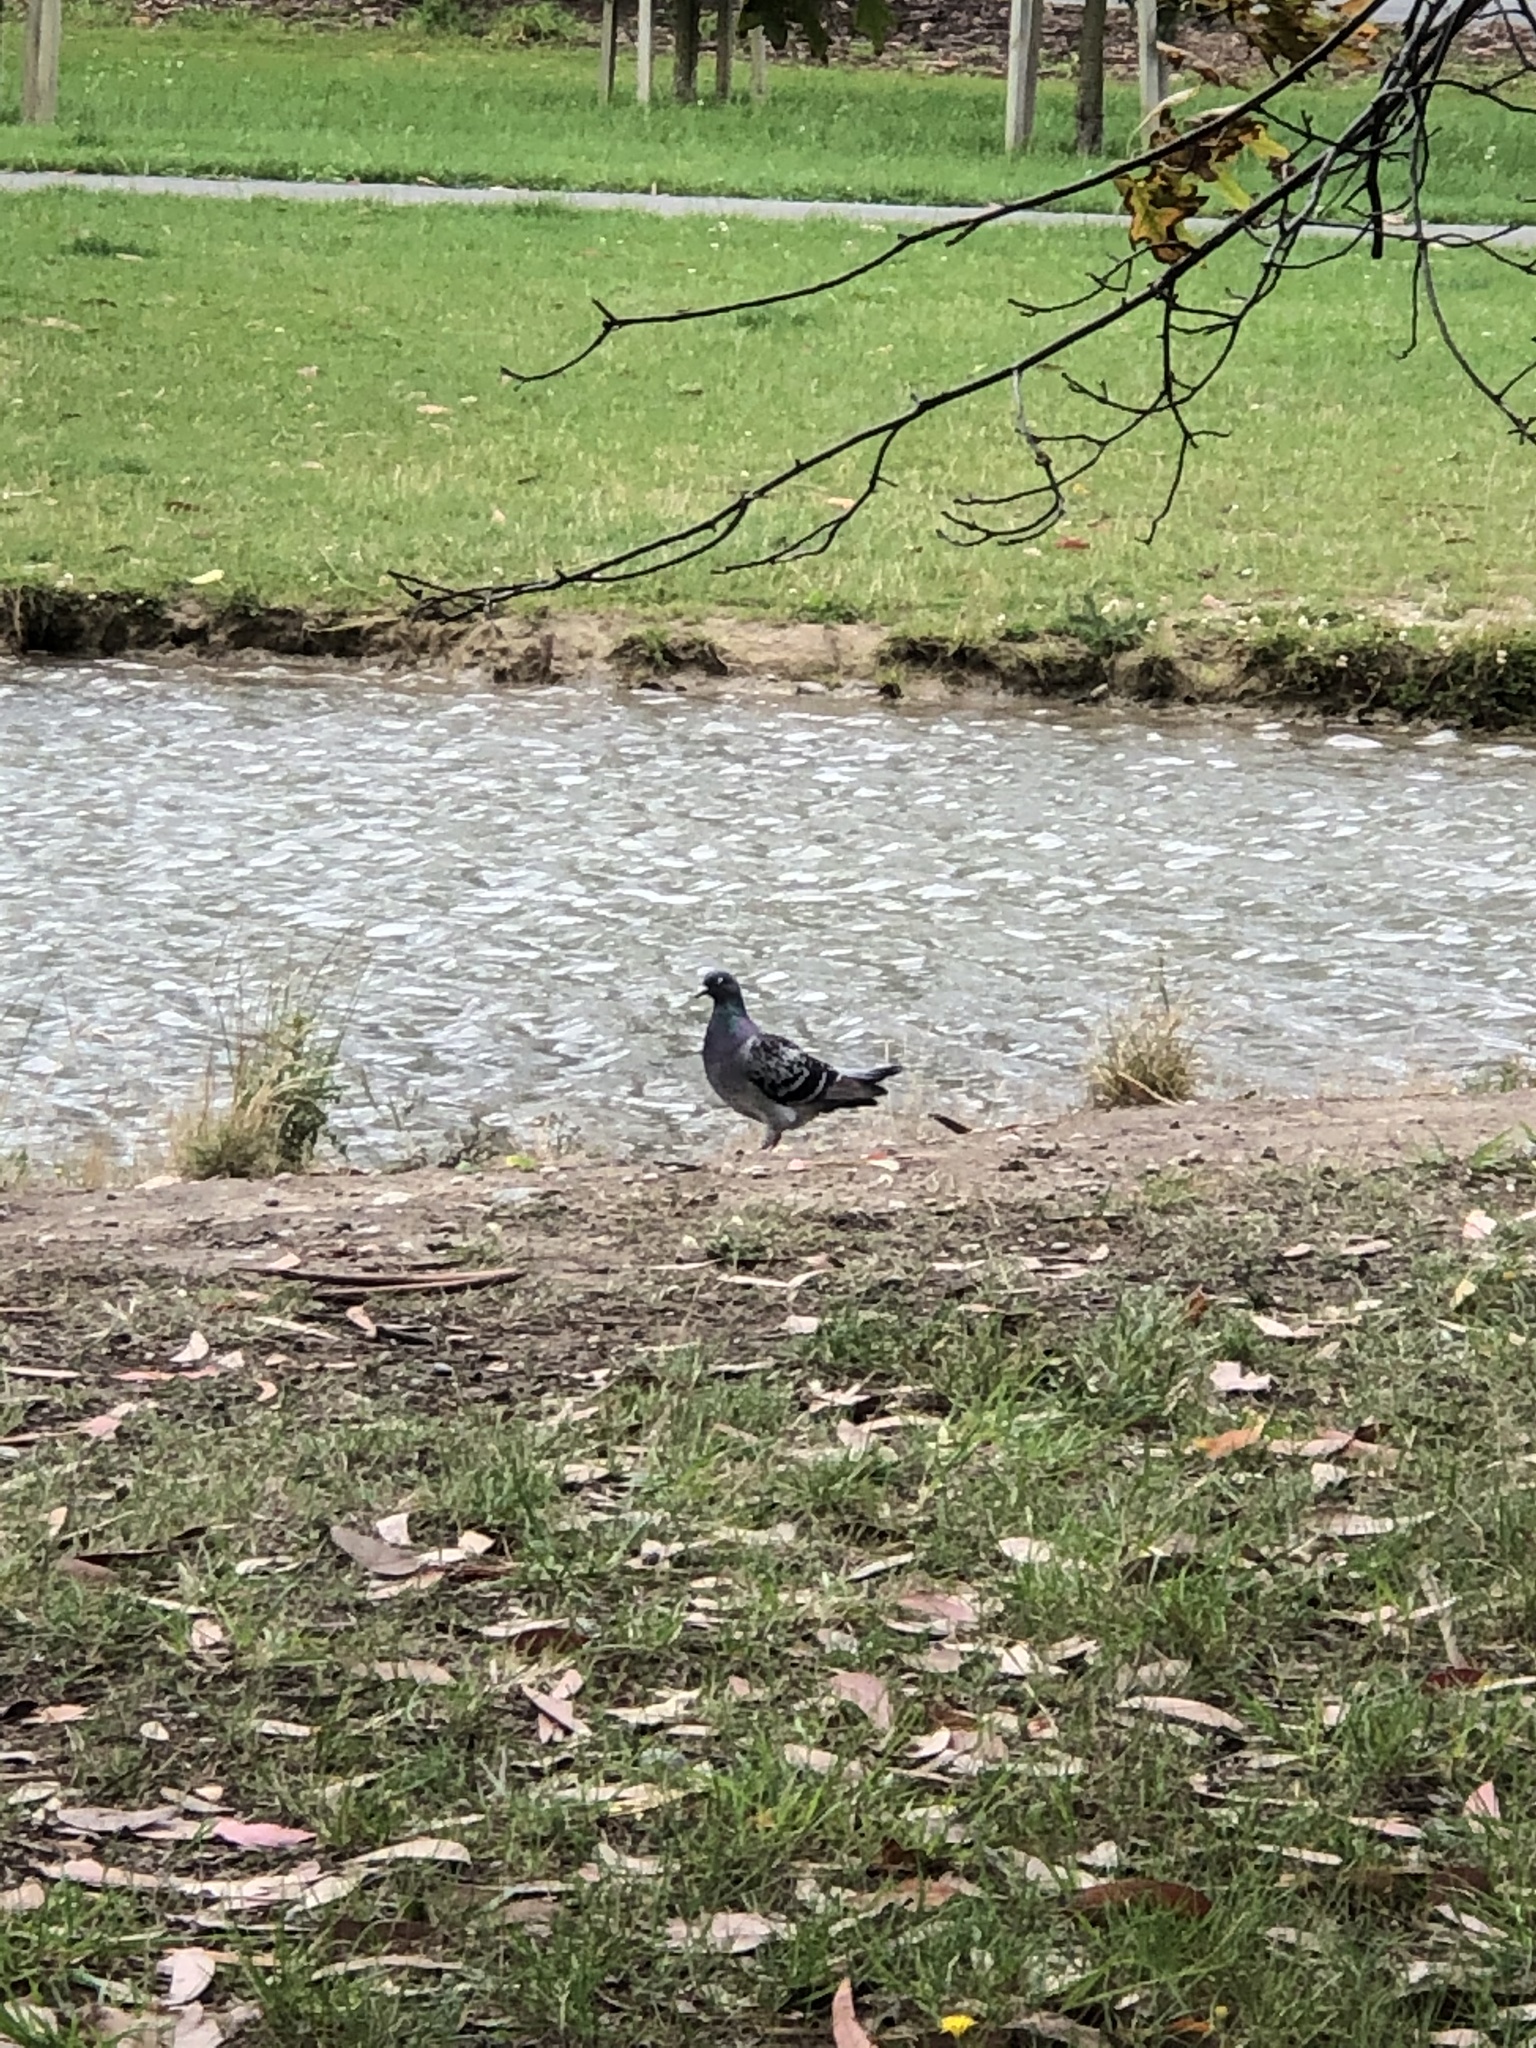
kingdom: Animalia
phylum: Chordata
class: Aves
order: Columbiformes
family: Columbidae
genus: Columba
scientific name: Columba livia
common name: Rock pigeon
